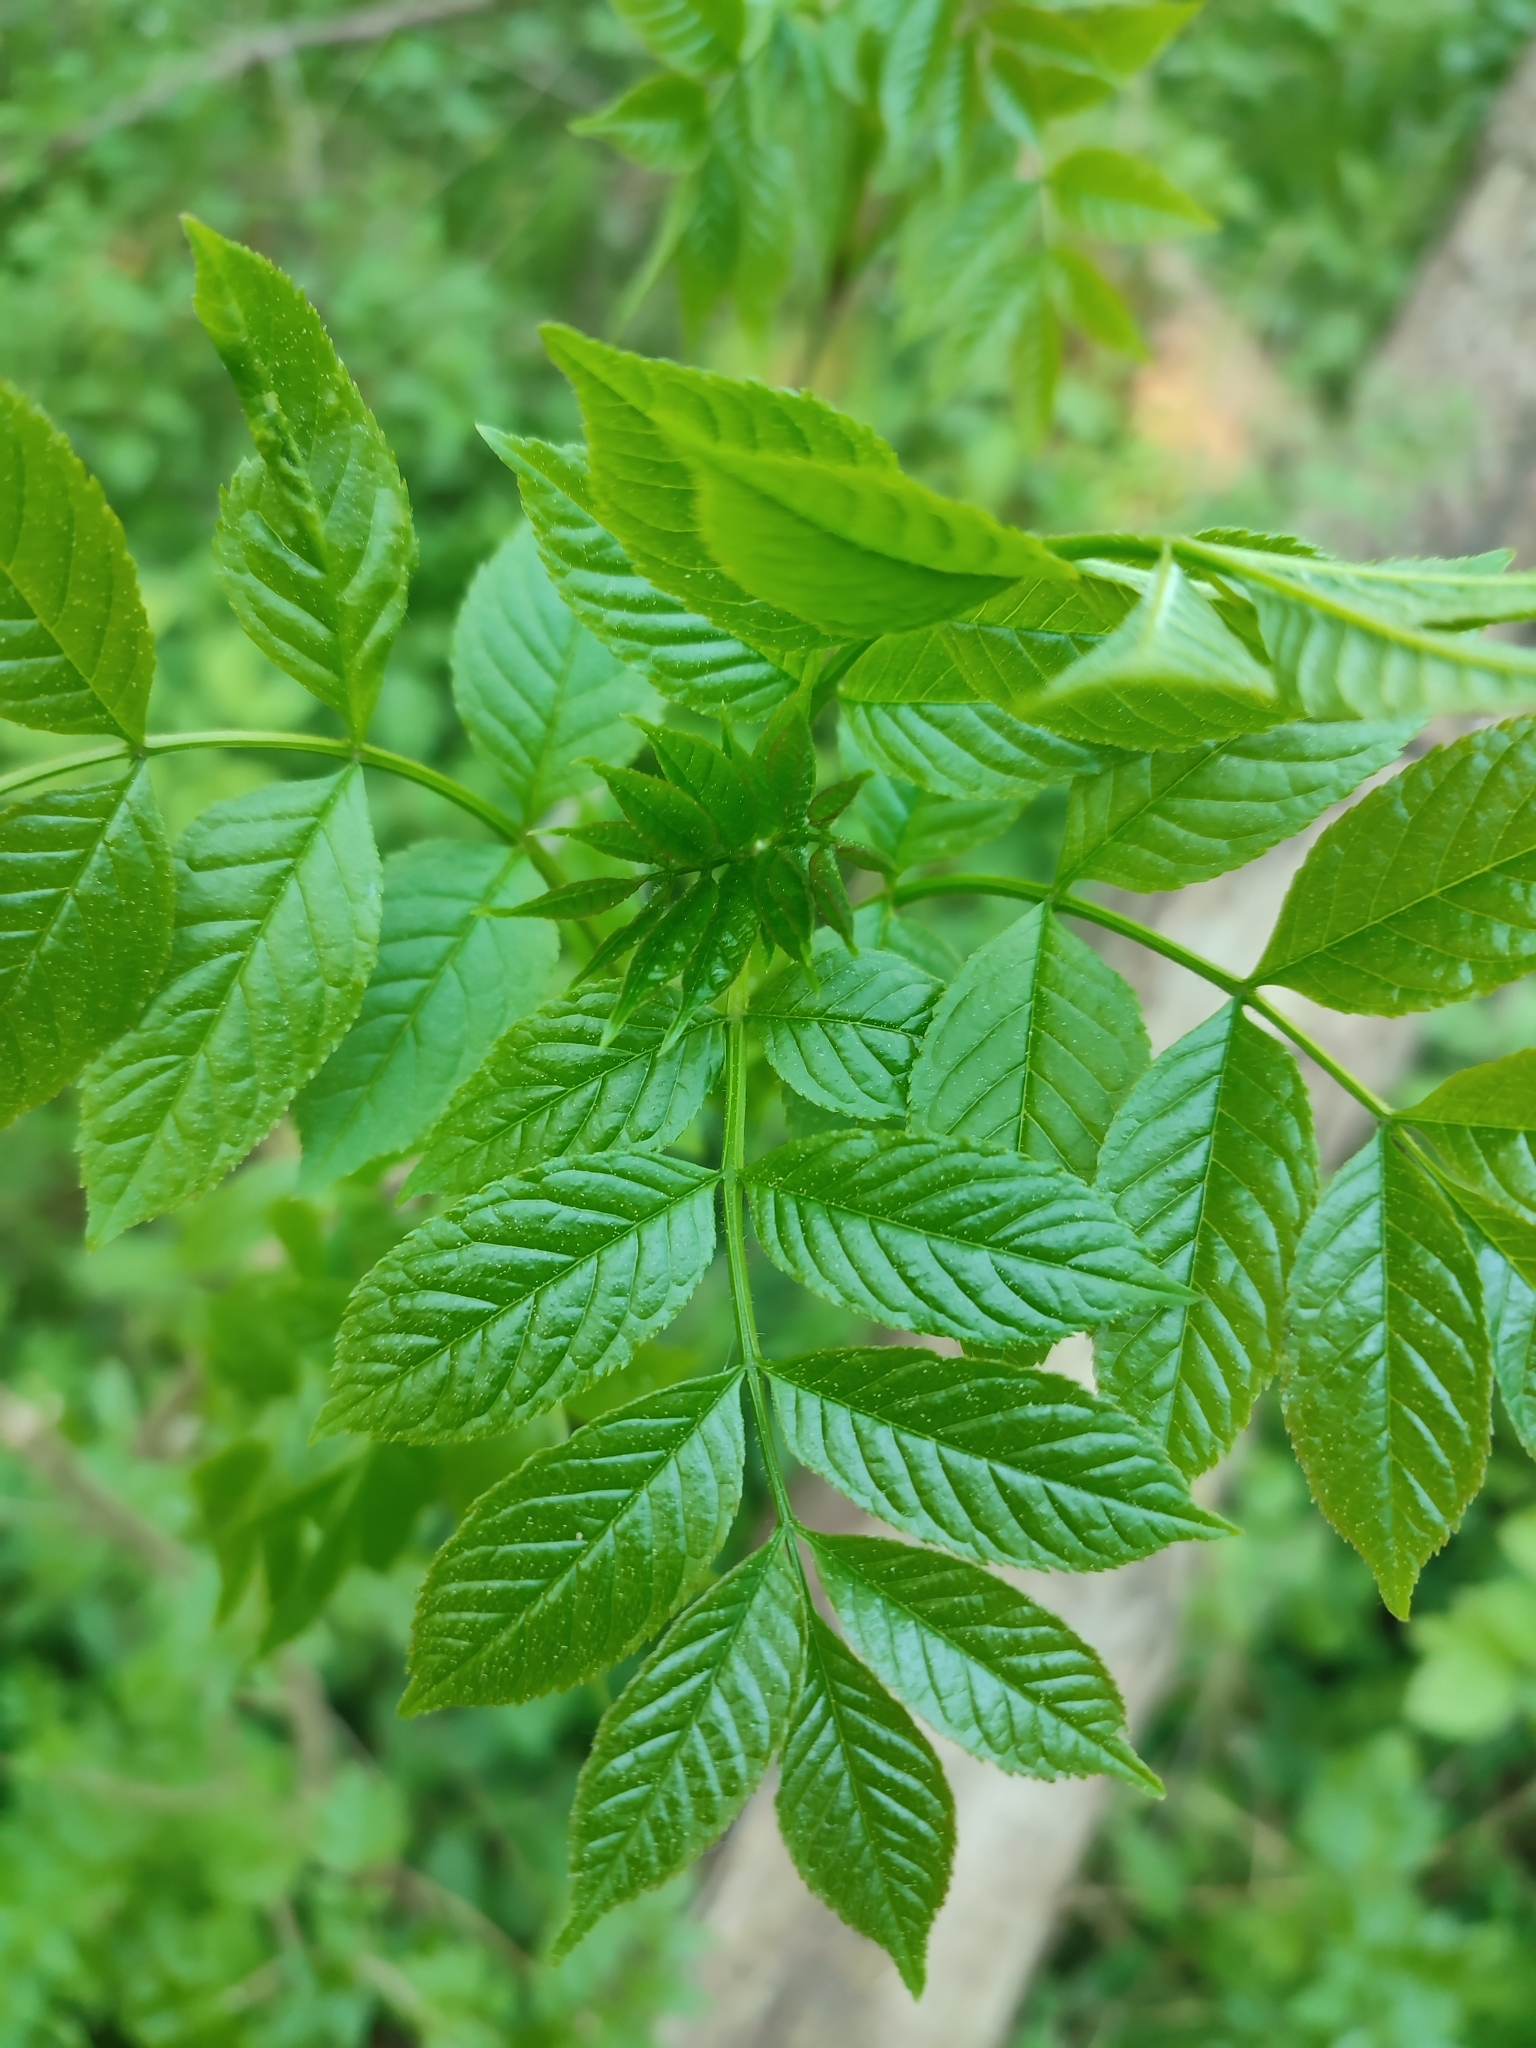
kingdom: Plantae
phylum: Tracheophyta
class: Magnoliopsida
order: Lamiales
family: Oleaceae
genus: Fraxinus
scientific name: Fraxinus excelsior
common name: European ash
